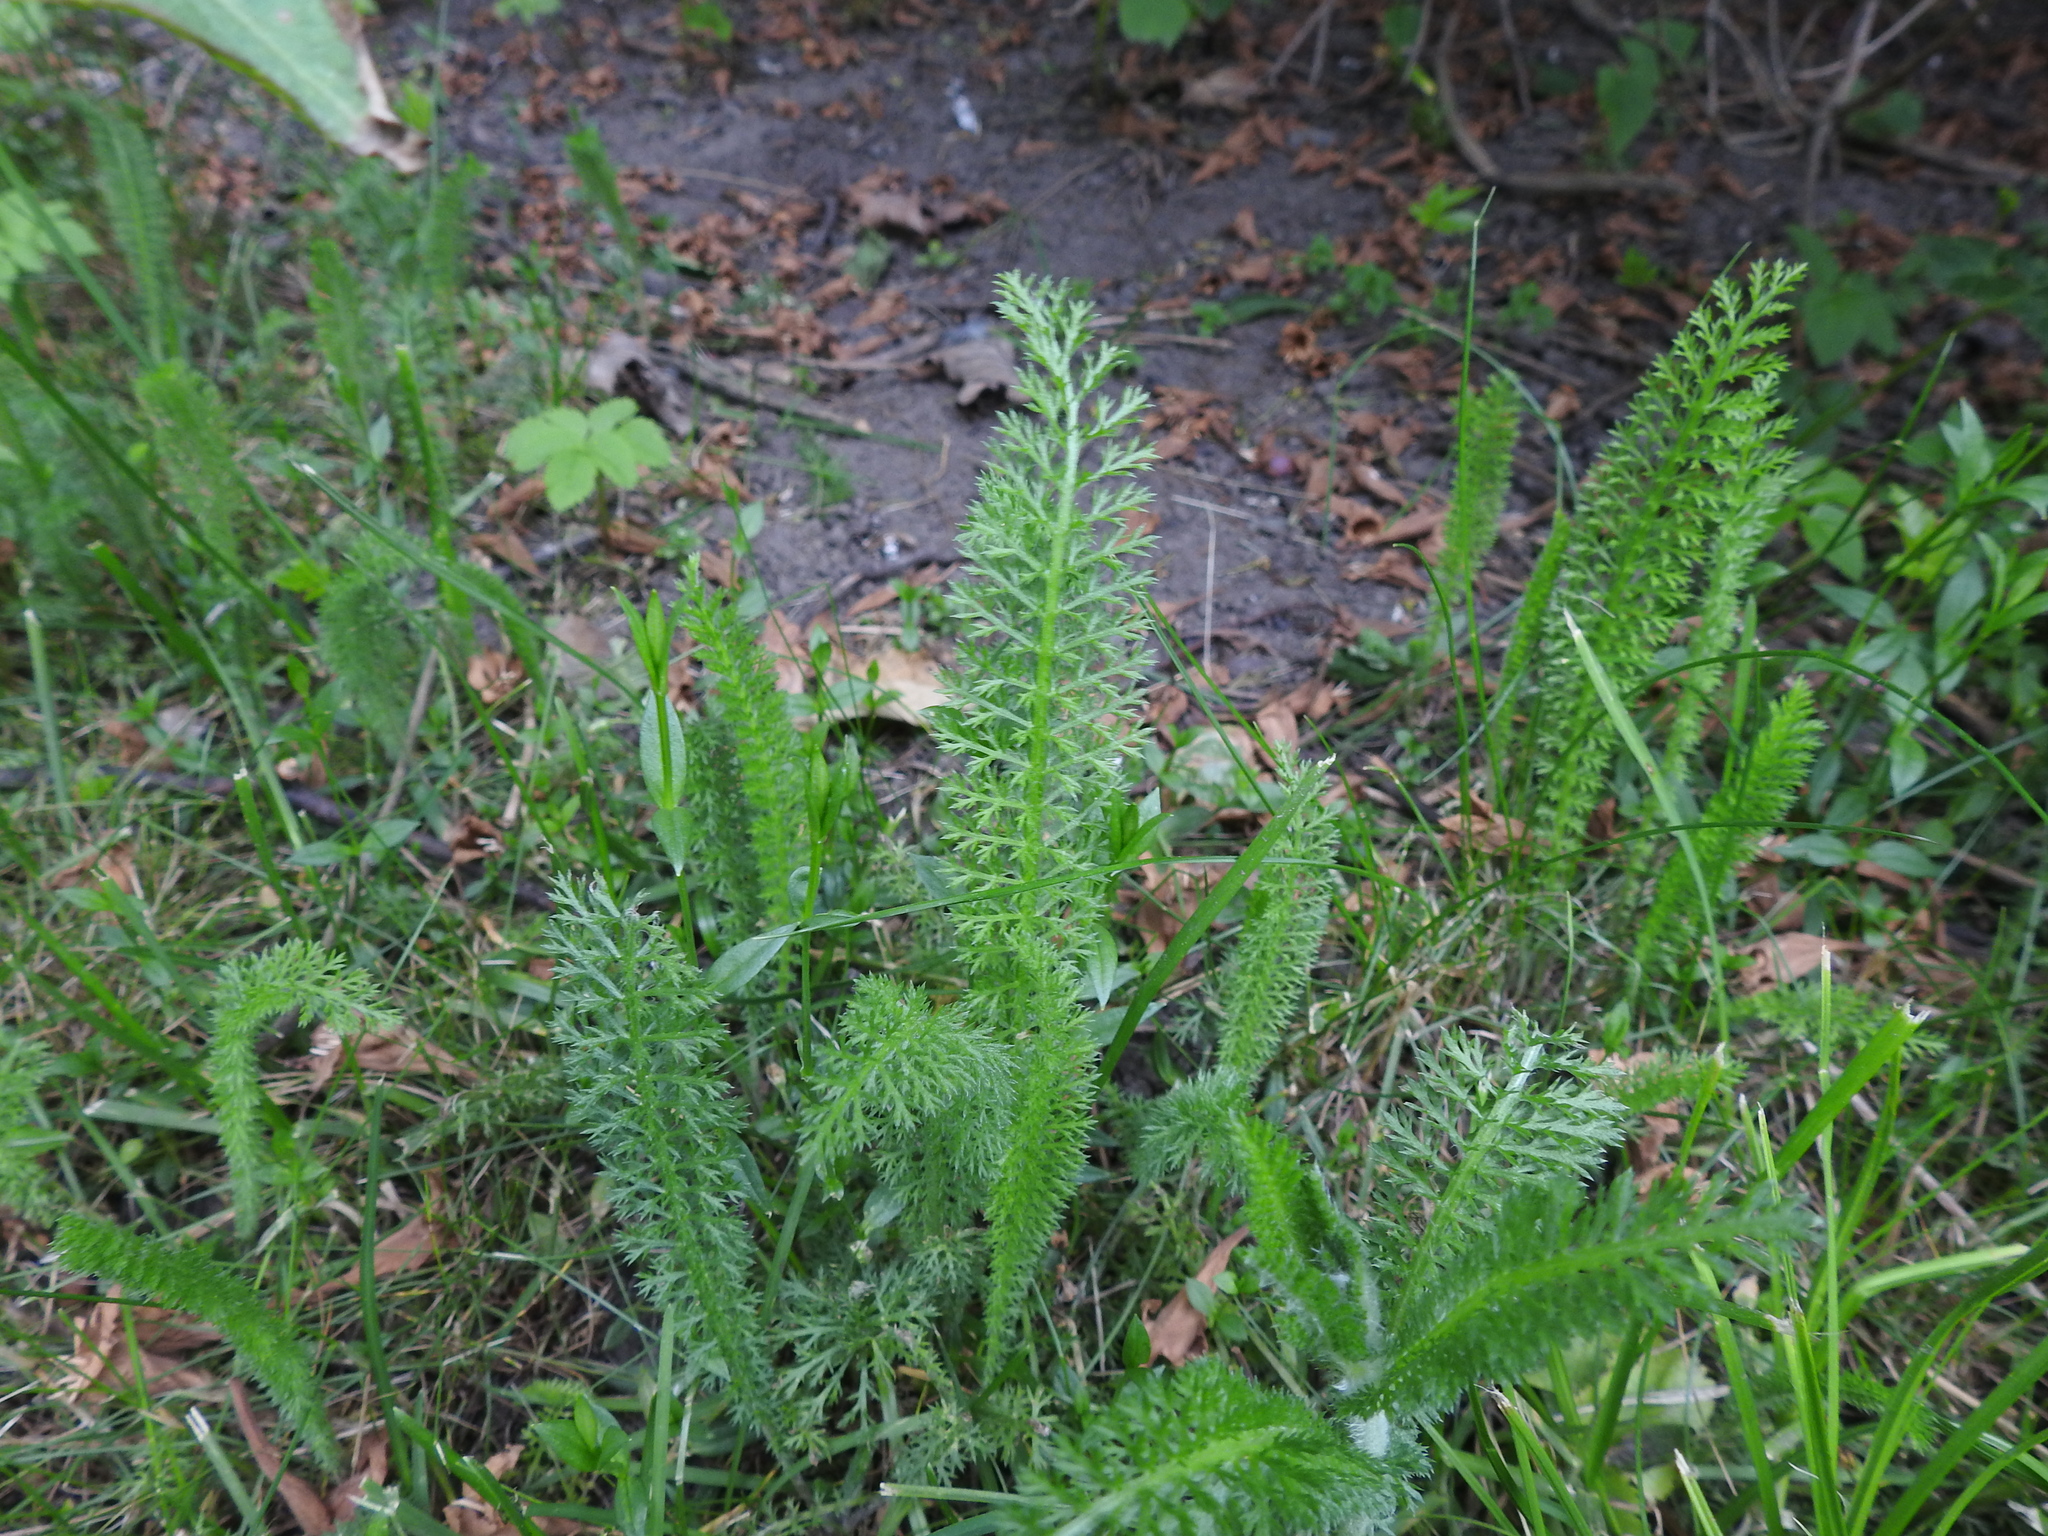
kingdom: Plantae
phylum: Tracheophyta
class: Magnoliopsida
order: Asterales
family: Asteraceae
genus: Achillea
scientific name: Achillea millefolium
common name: Yarrow
